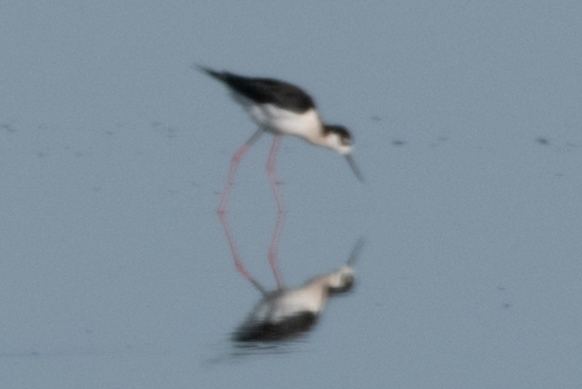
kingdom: Animalia
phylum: Chordata
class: Aves
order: Charadriiformes
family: Recurvirostridae
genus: Himantopus
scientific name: Himantopus mexicanus
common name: Black-necked stilt
